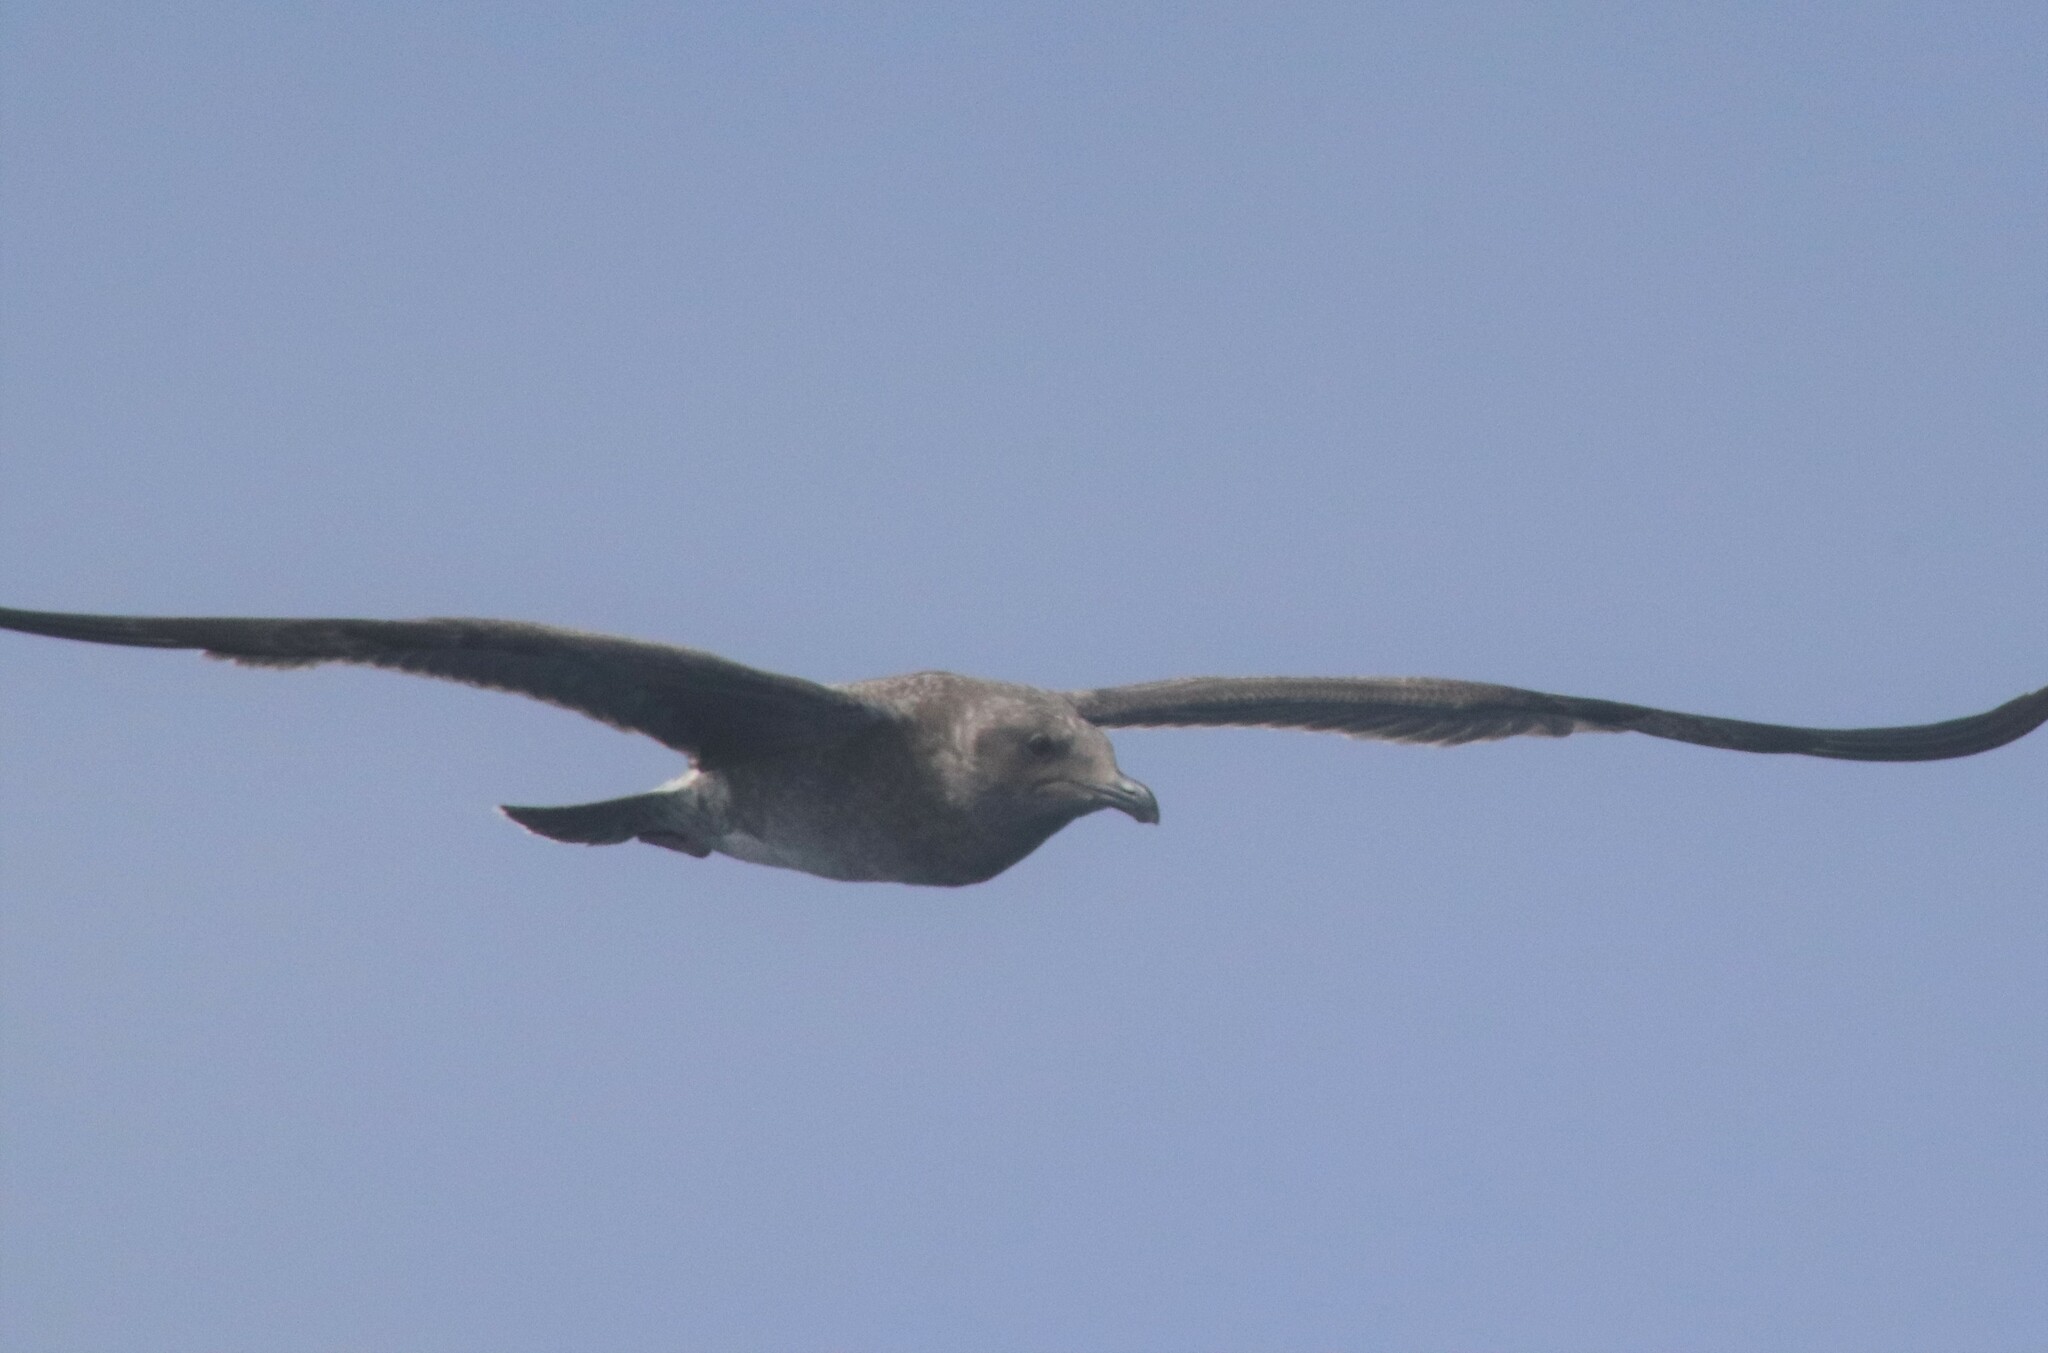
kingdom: Animalia
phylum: Chordata
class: Aves
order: Charadriiformes
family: Laridae
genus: Larus
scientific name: Larus occidentalis
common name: Western gull
